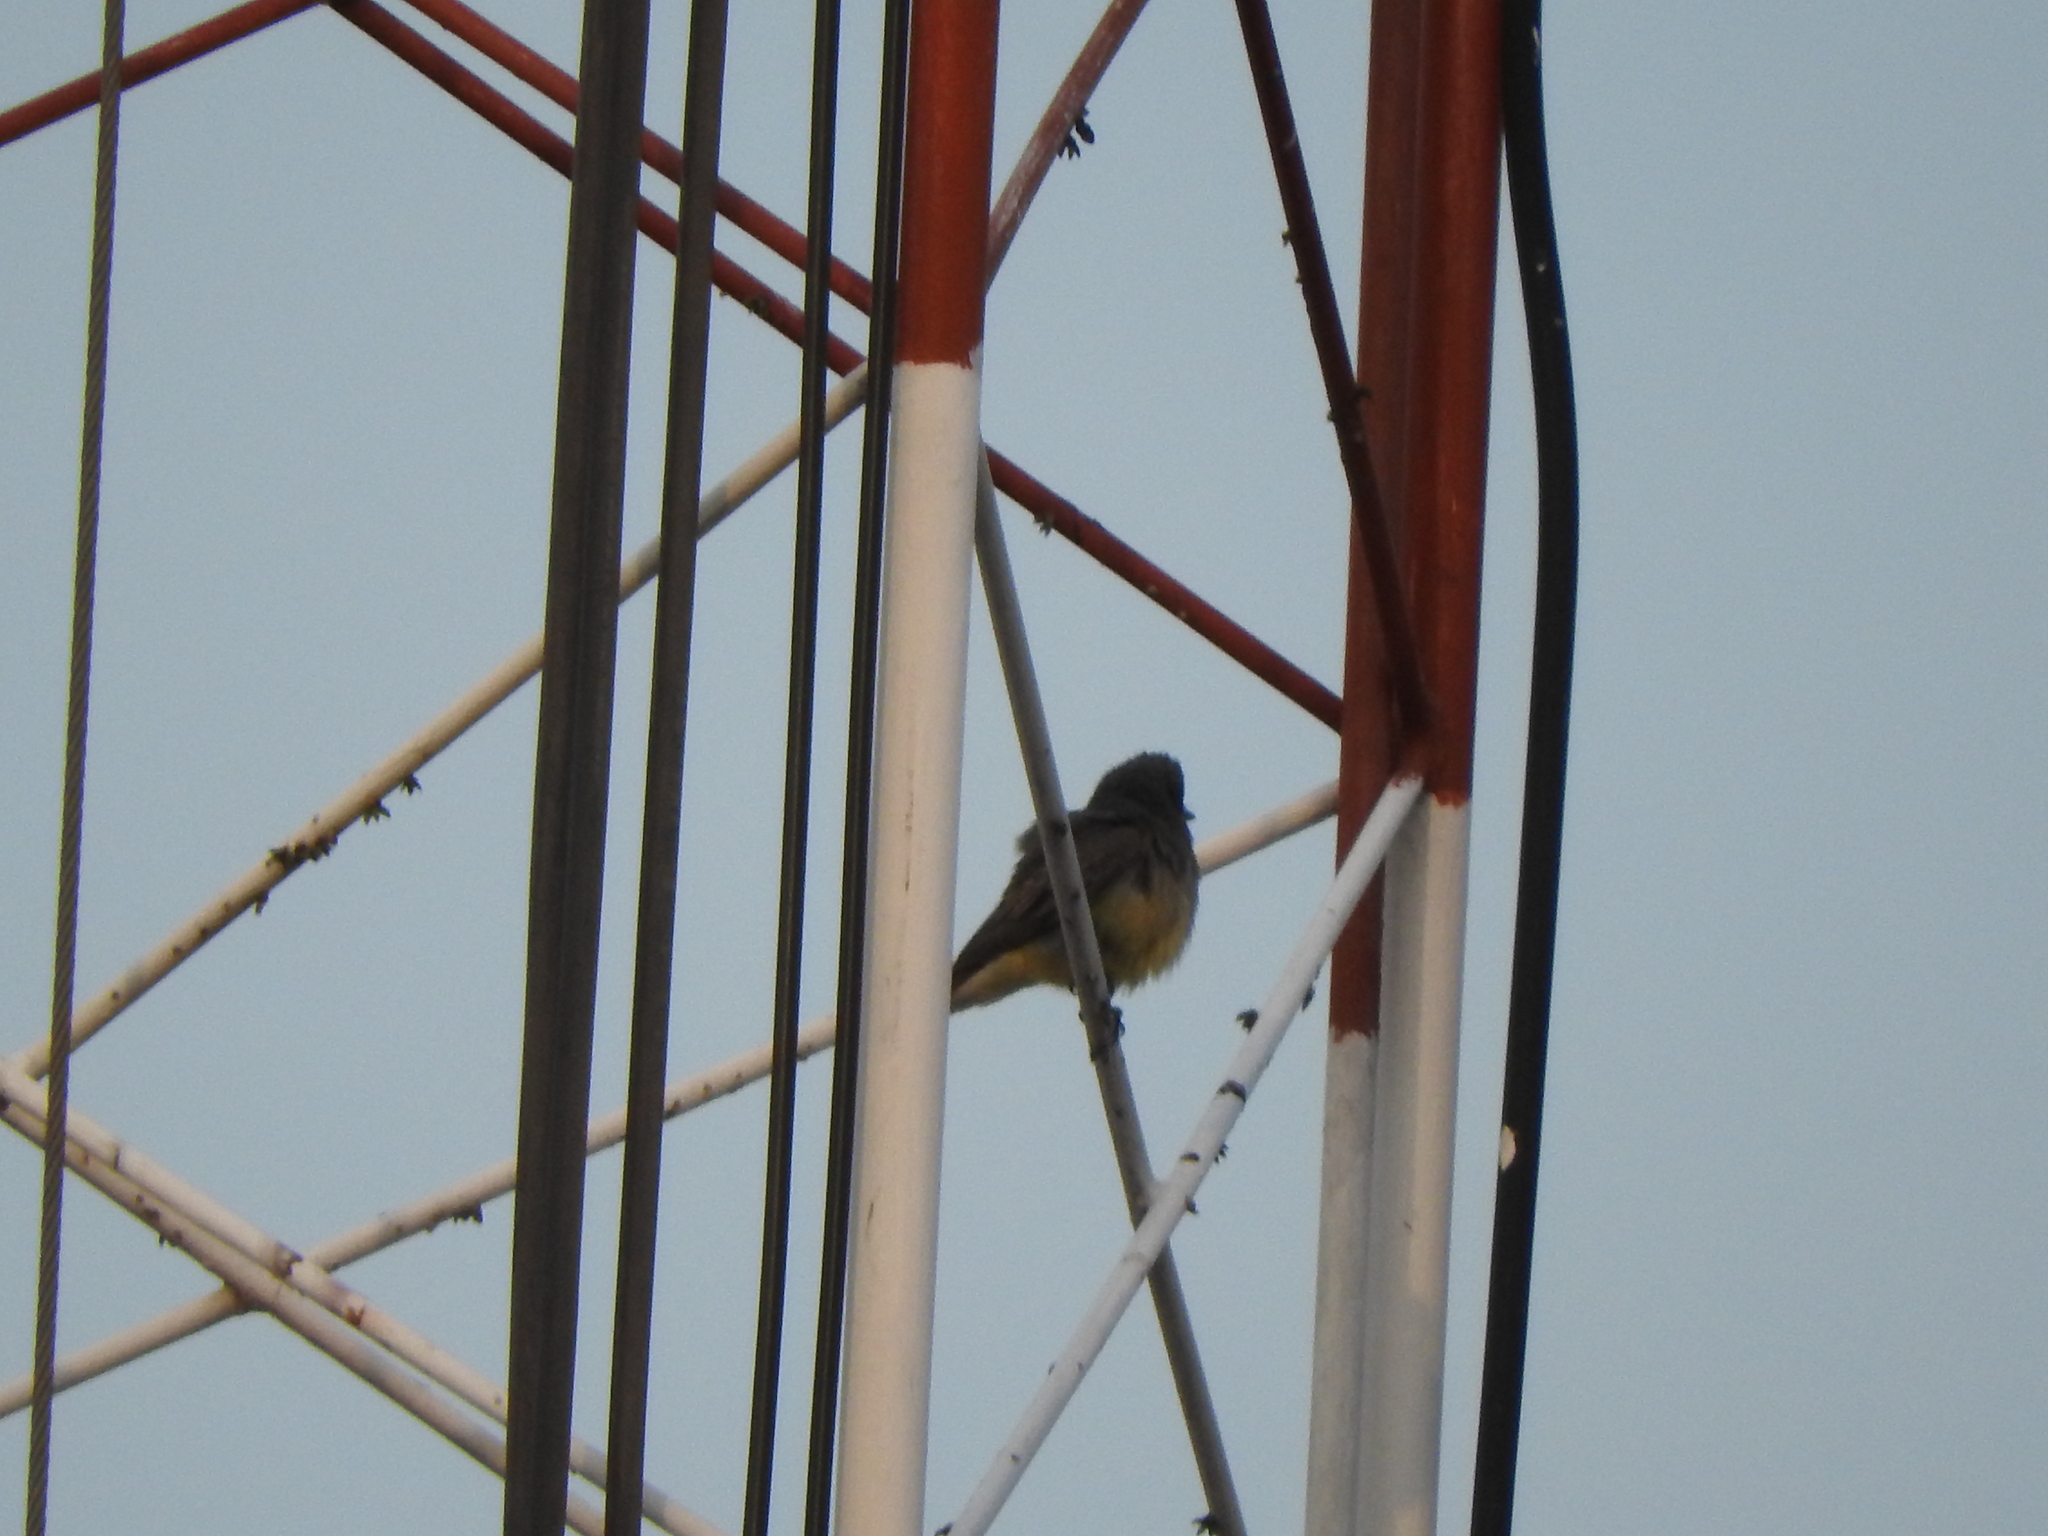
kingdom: Animalia
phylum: Chordata
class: Aves
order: Passeriformes
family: Tyrannidae
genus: Tyrannus
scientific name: Tyrannus vociferans
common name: Cassin's kingbird
